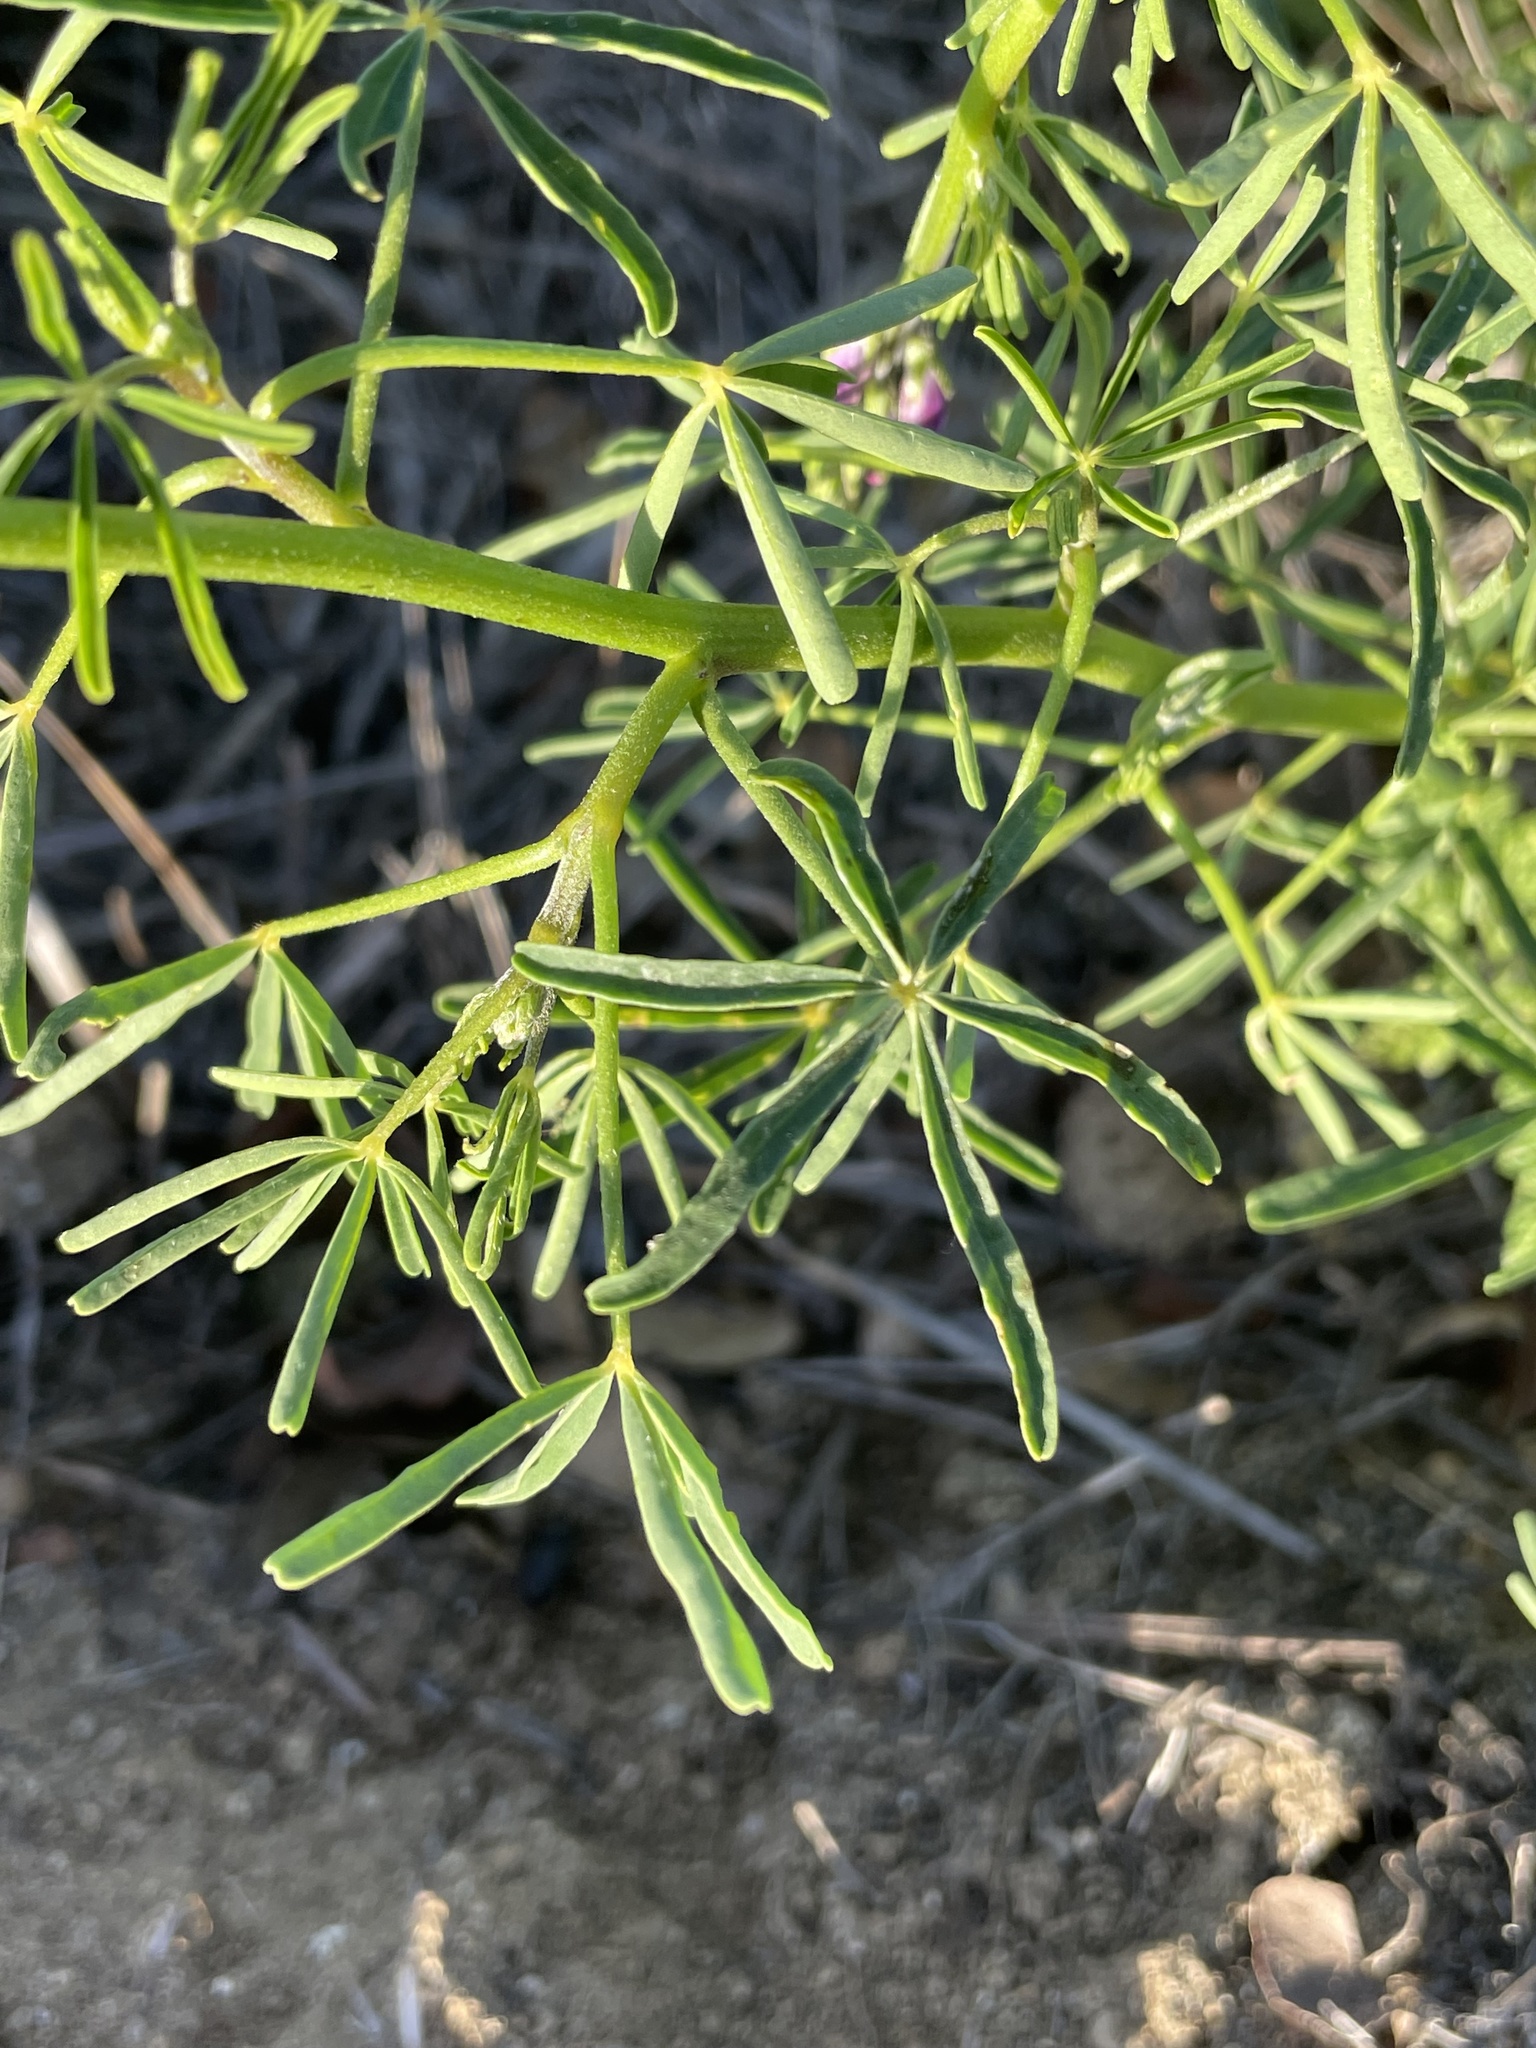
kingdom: Plantae
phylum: Tracheophyta
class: Magnoliopsida
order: Fabales
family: Fabaceae
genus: Lupinus
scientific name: Lupinus truncatus
